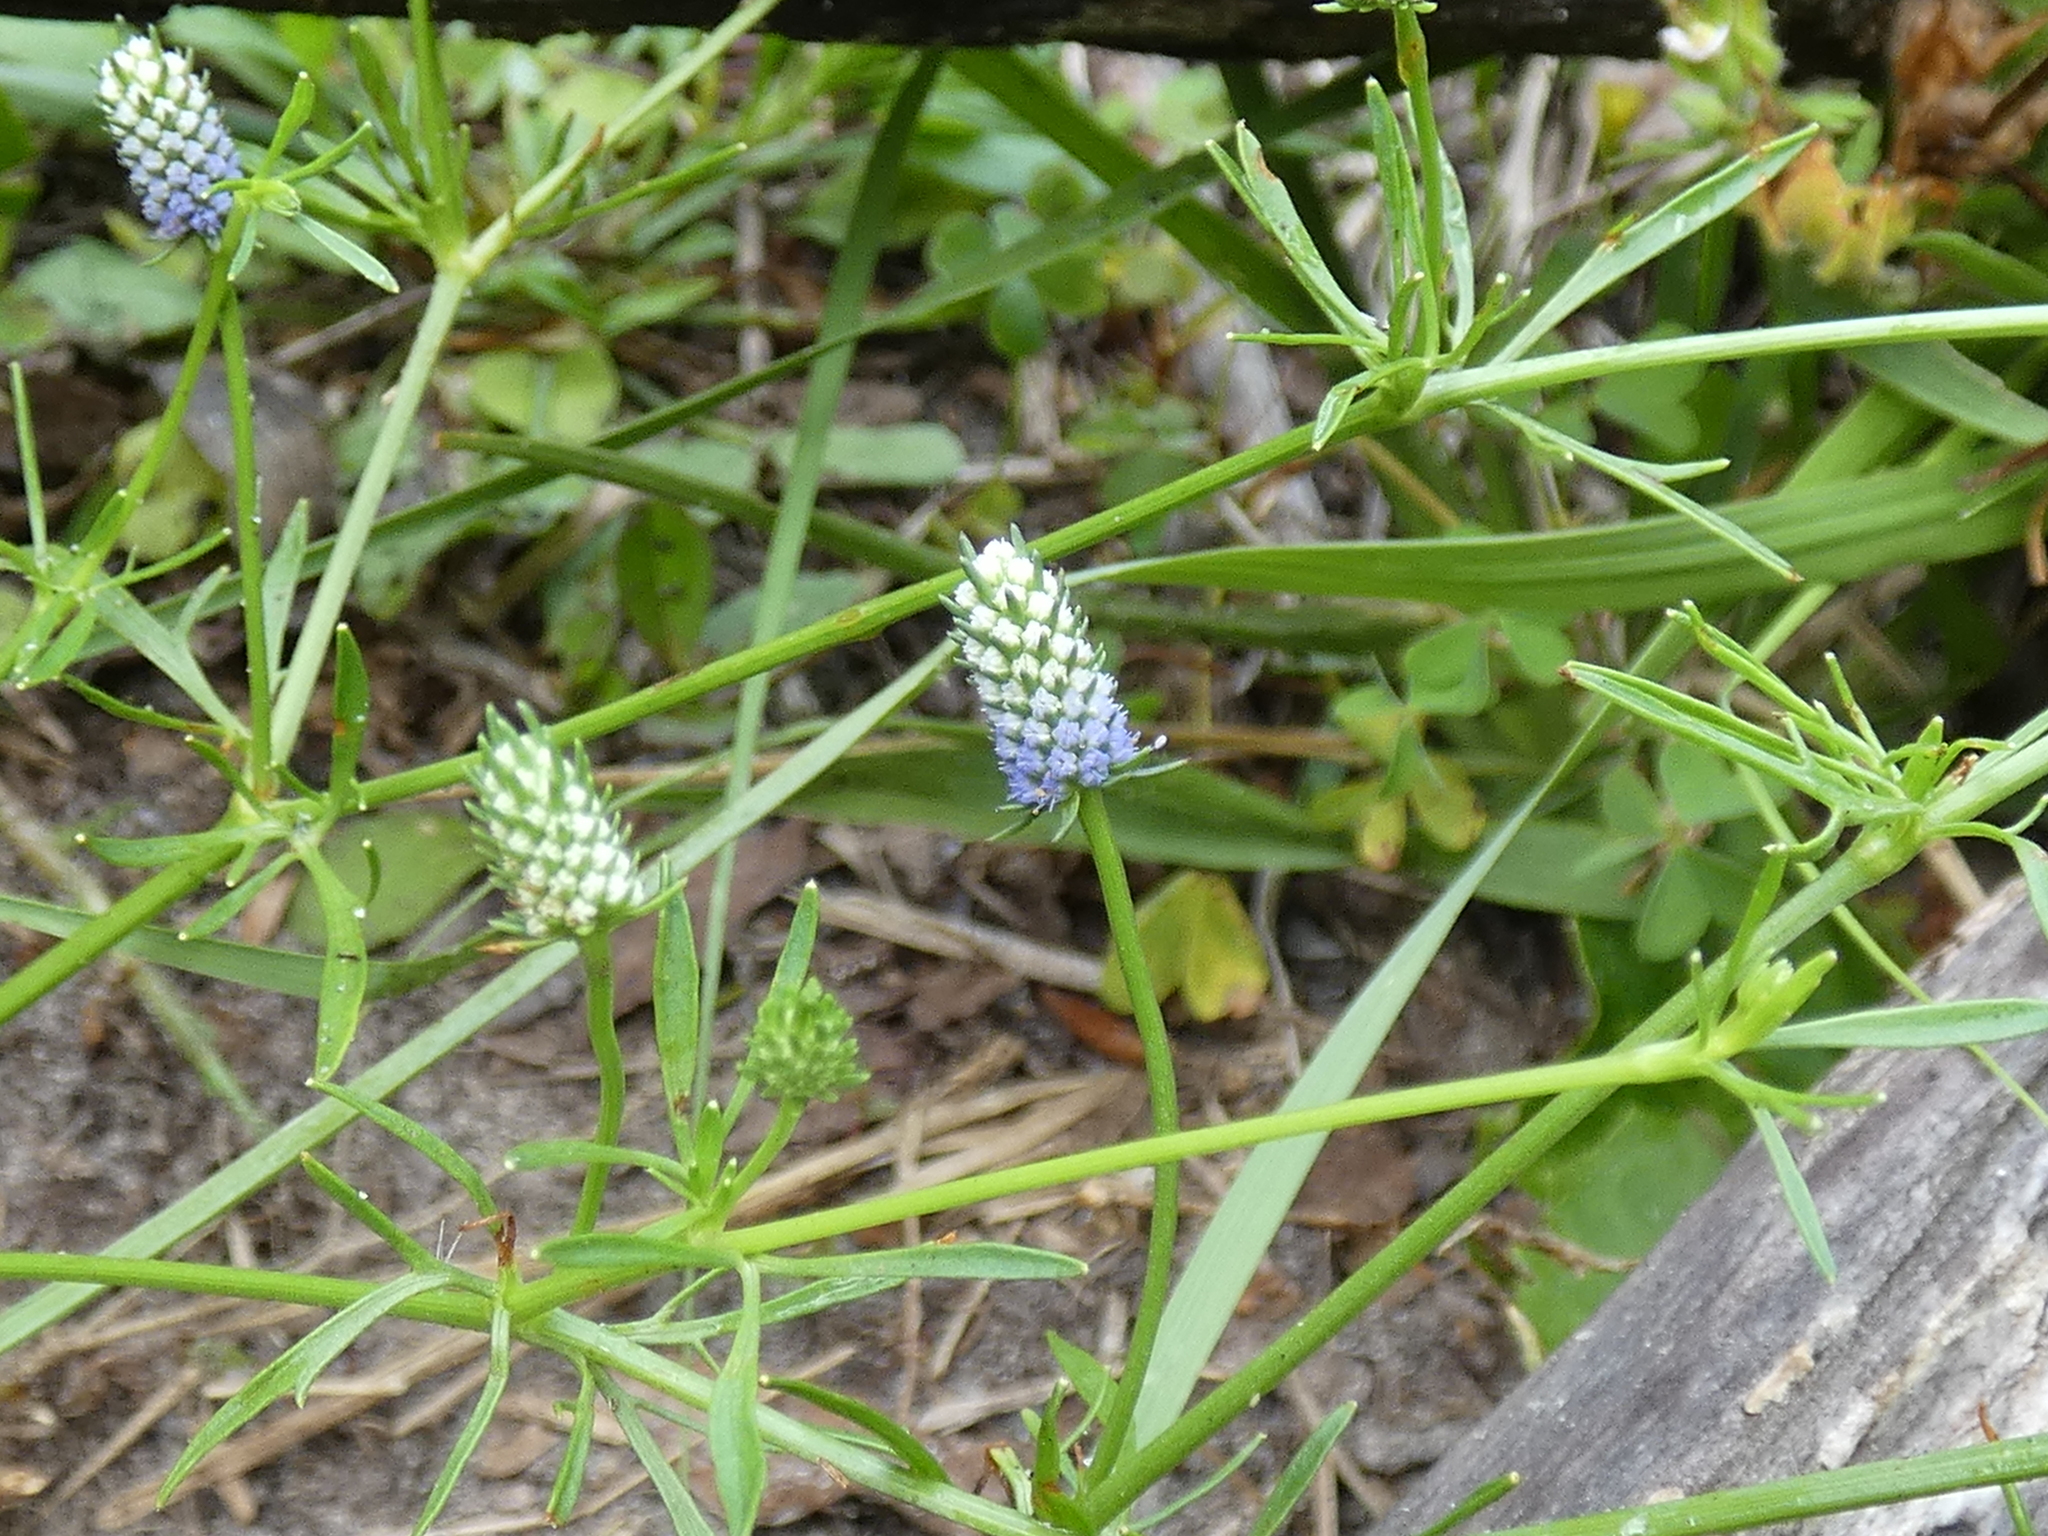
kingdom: Plantae
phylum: Tracheophyta
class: Magnoliopsida
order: Apiales
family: Apiaceae
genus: Eryngium
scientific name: Eryngium prostratum
